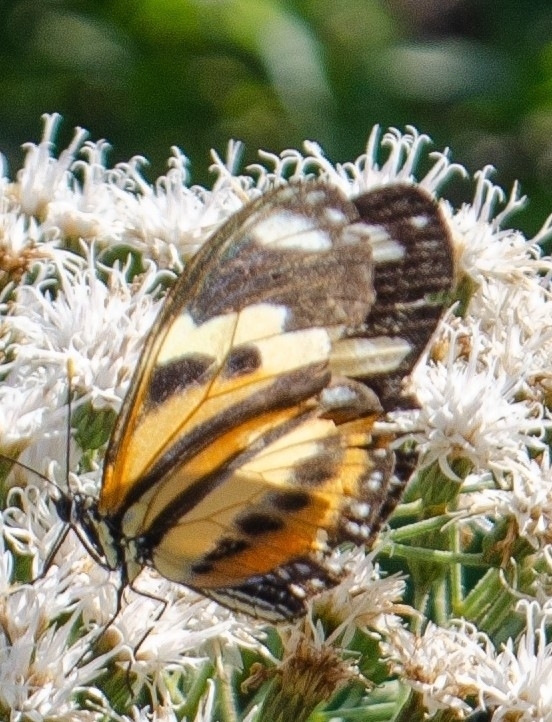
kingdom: Animalia
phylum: Arthropoda
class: Insecta
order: Lepidoptera
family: Nymphalidae
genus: Eueides
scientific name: Eueides isabella
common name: Isabella's longwing
